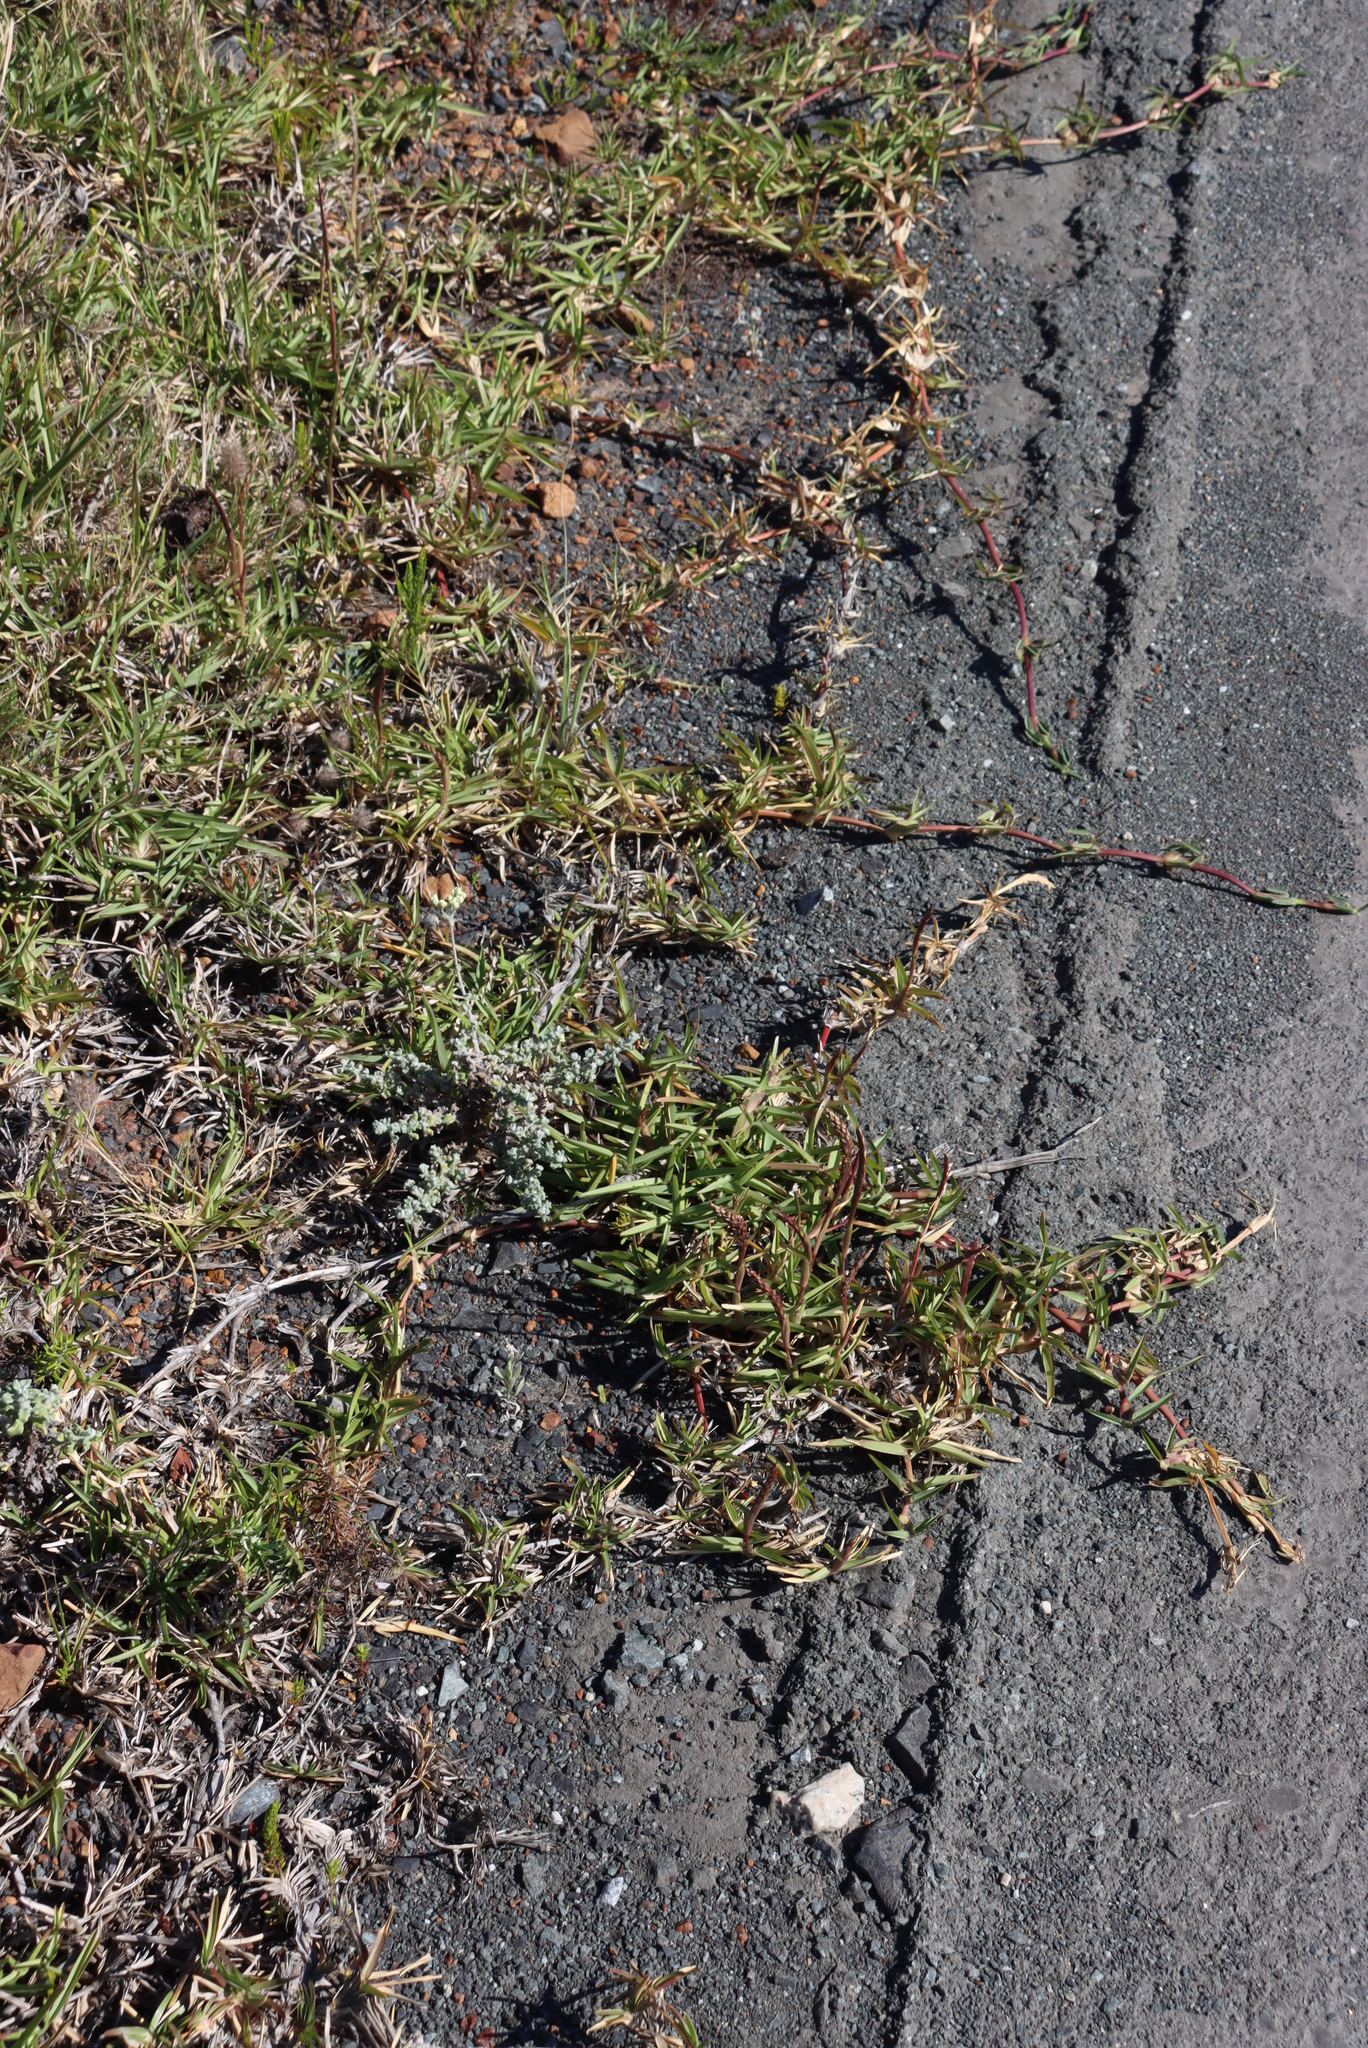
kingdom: Plantae
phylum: Tracheophyta
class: Liliopsida
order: Poales
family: Poaceae
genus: Stenotaphrum
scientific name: Stenotaphrum secundatum
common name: St. augustine grass
